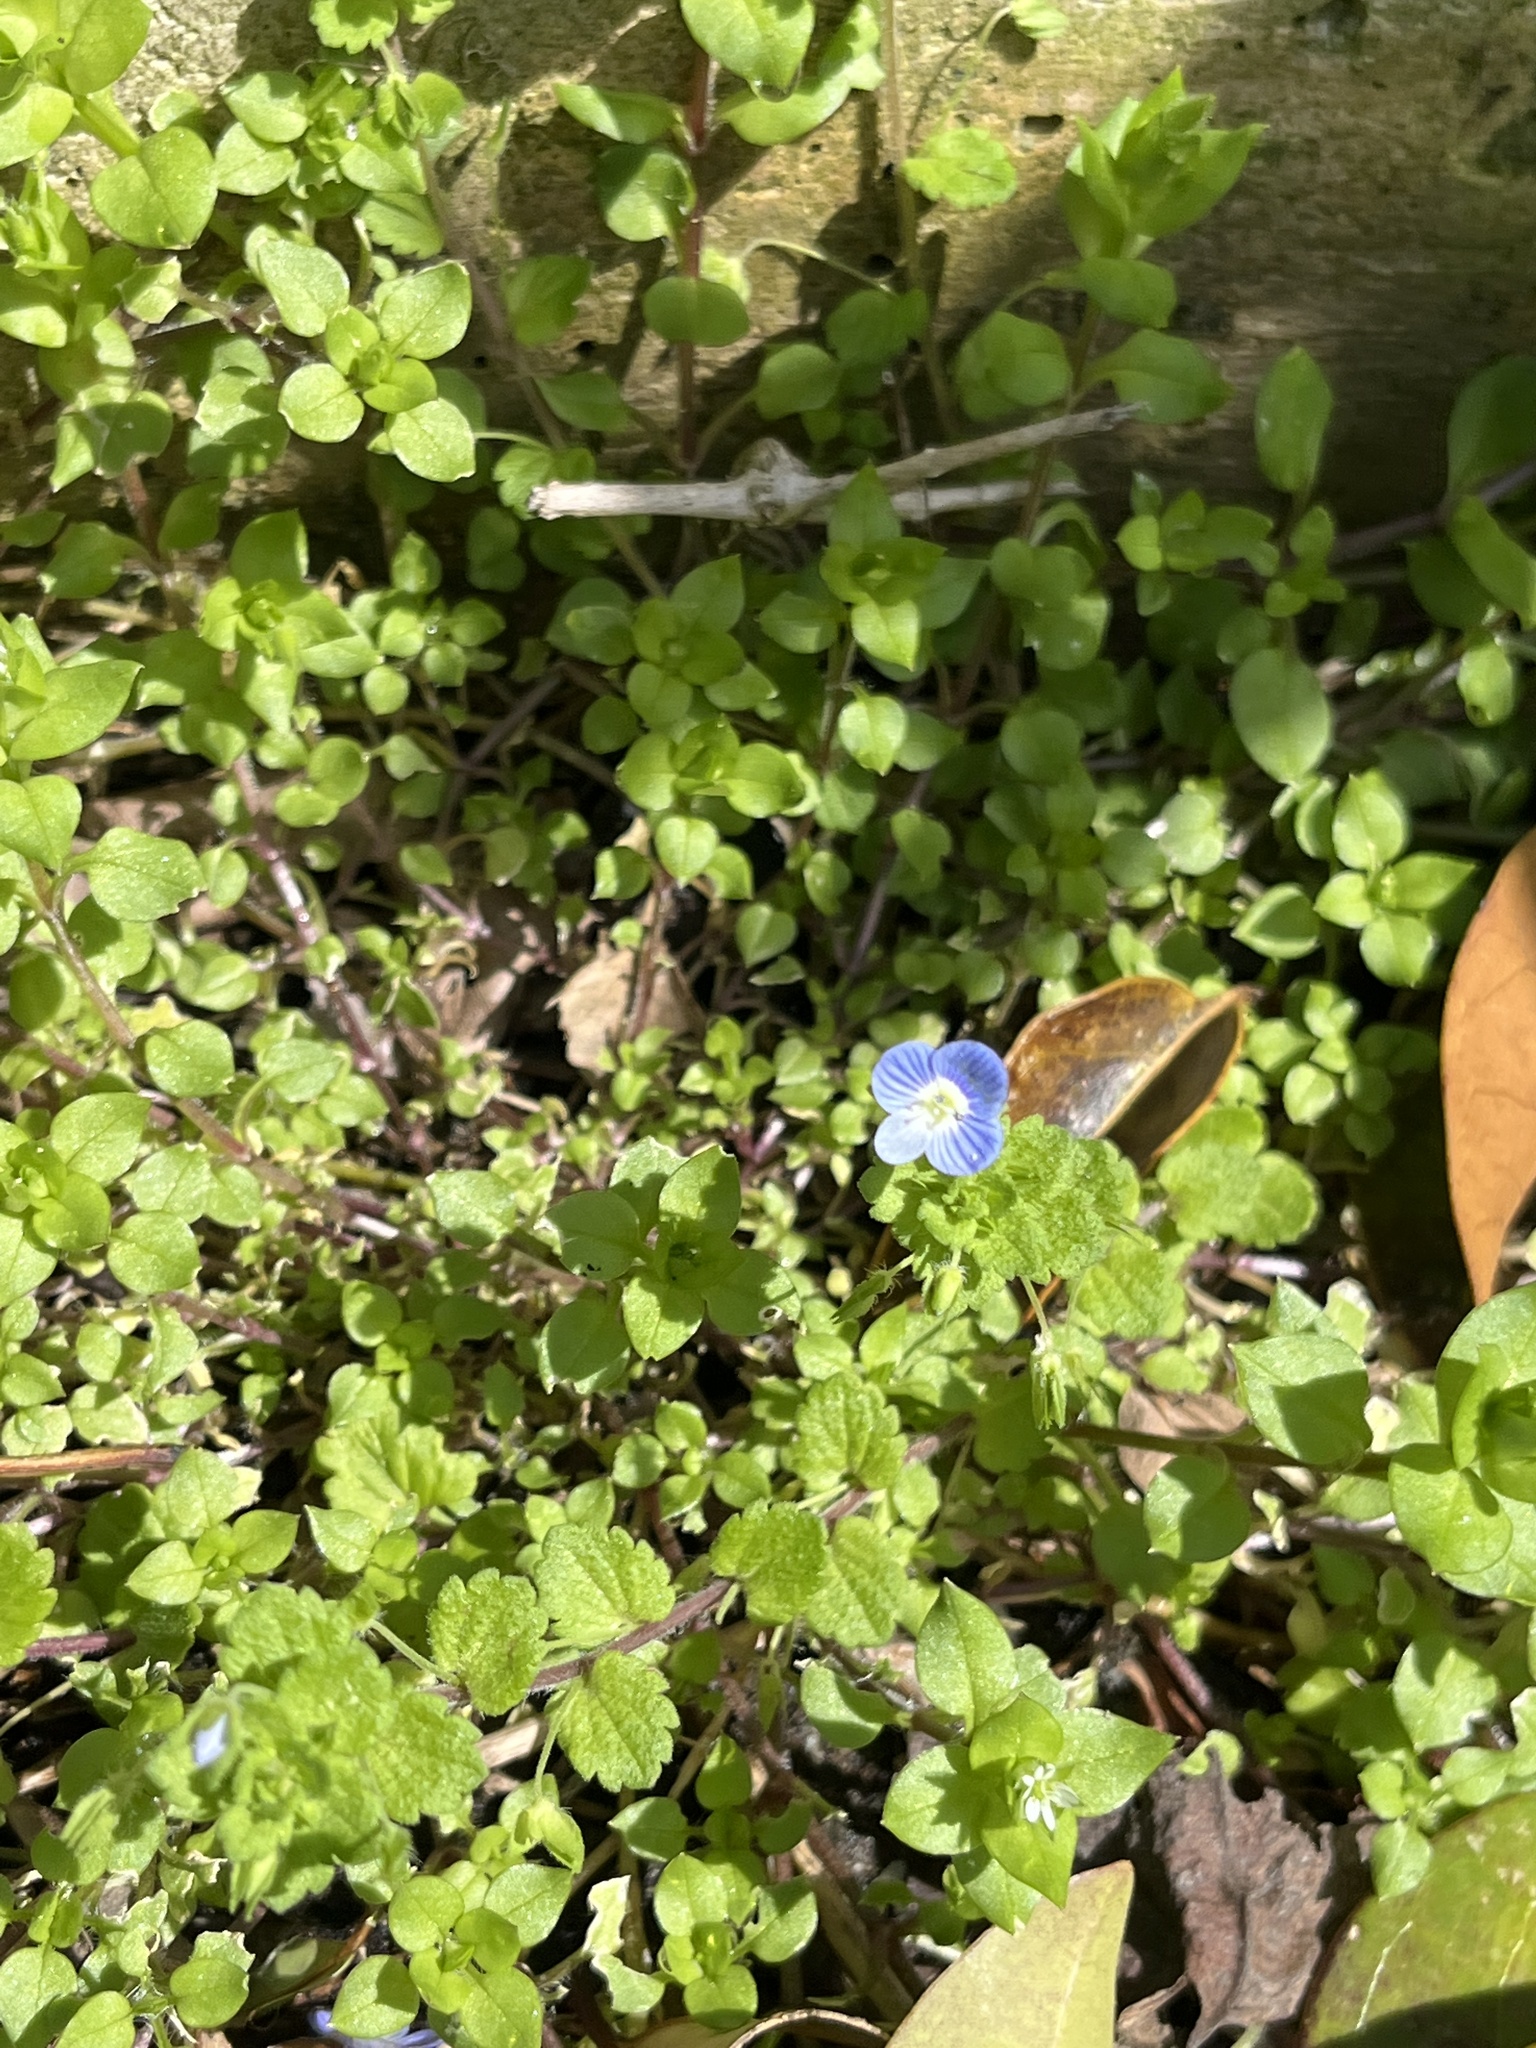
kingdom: Plantae
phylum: Tracheophyta
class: Magnoliopsida
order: Lamiales
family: Plantaginaceae
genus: Veronica
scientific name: Veronica persica
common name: Common field-speedwell
